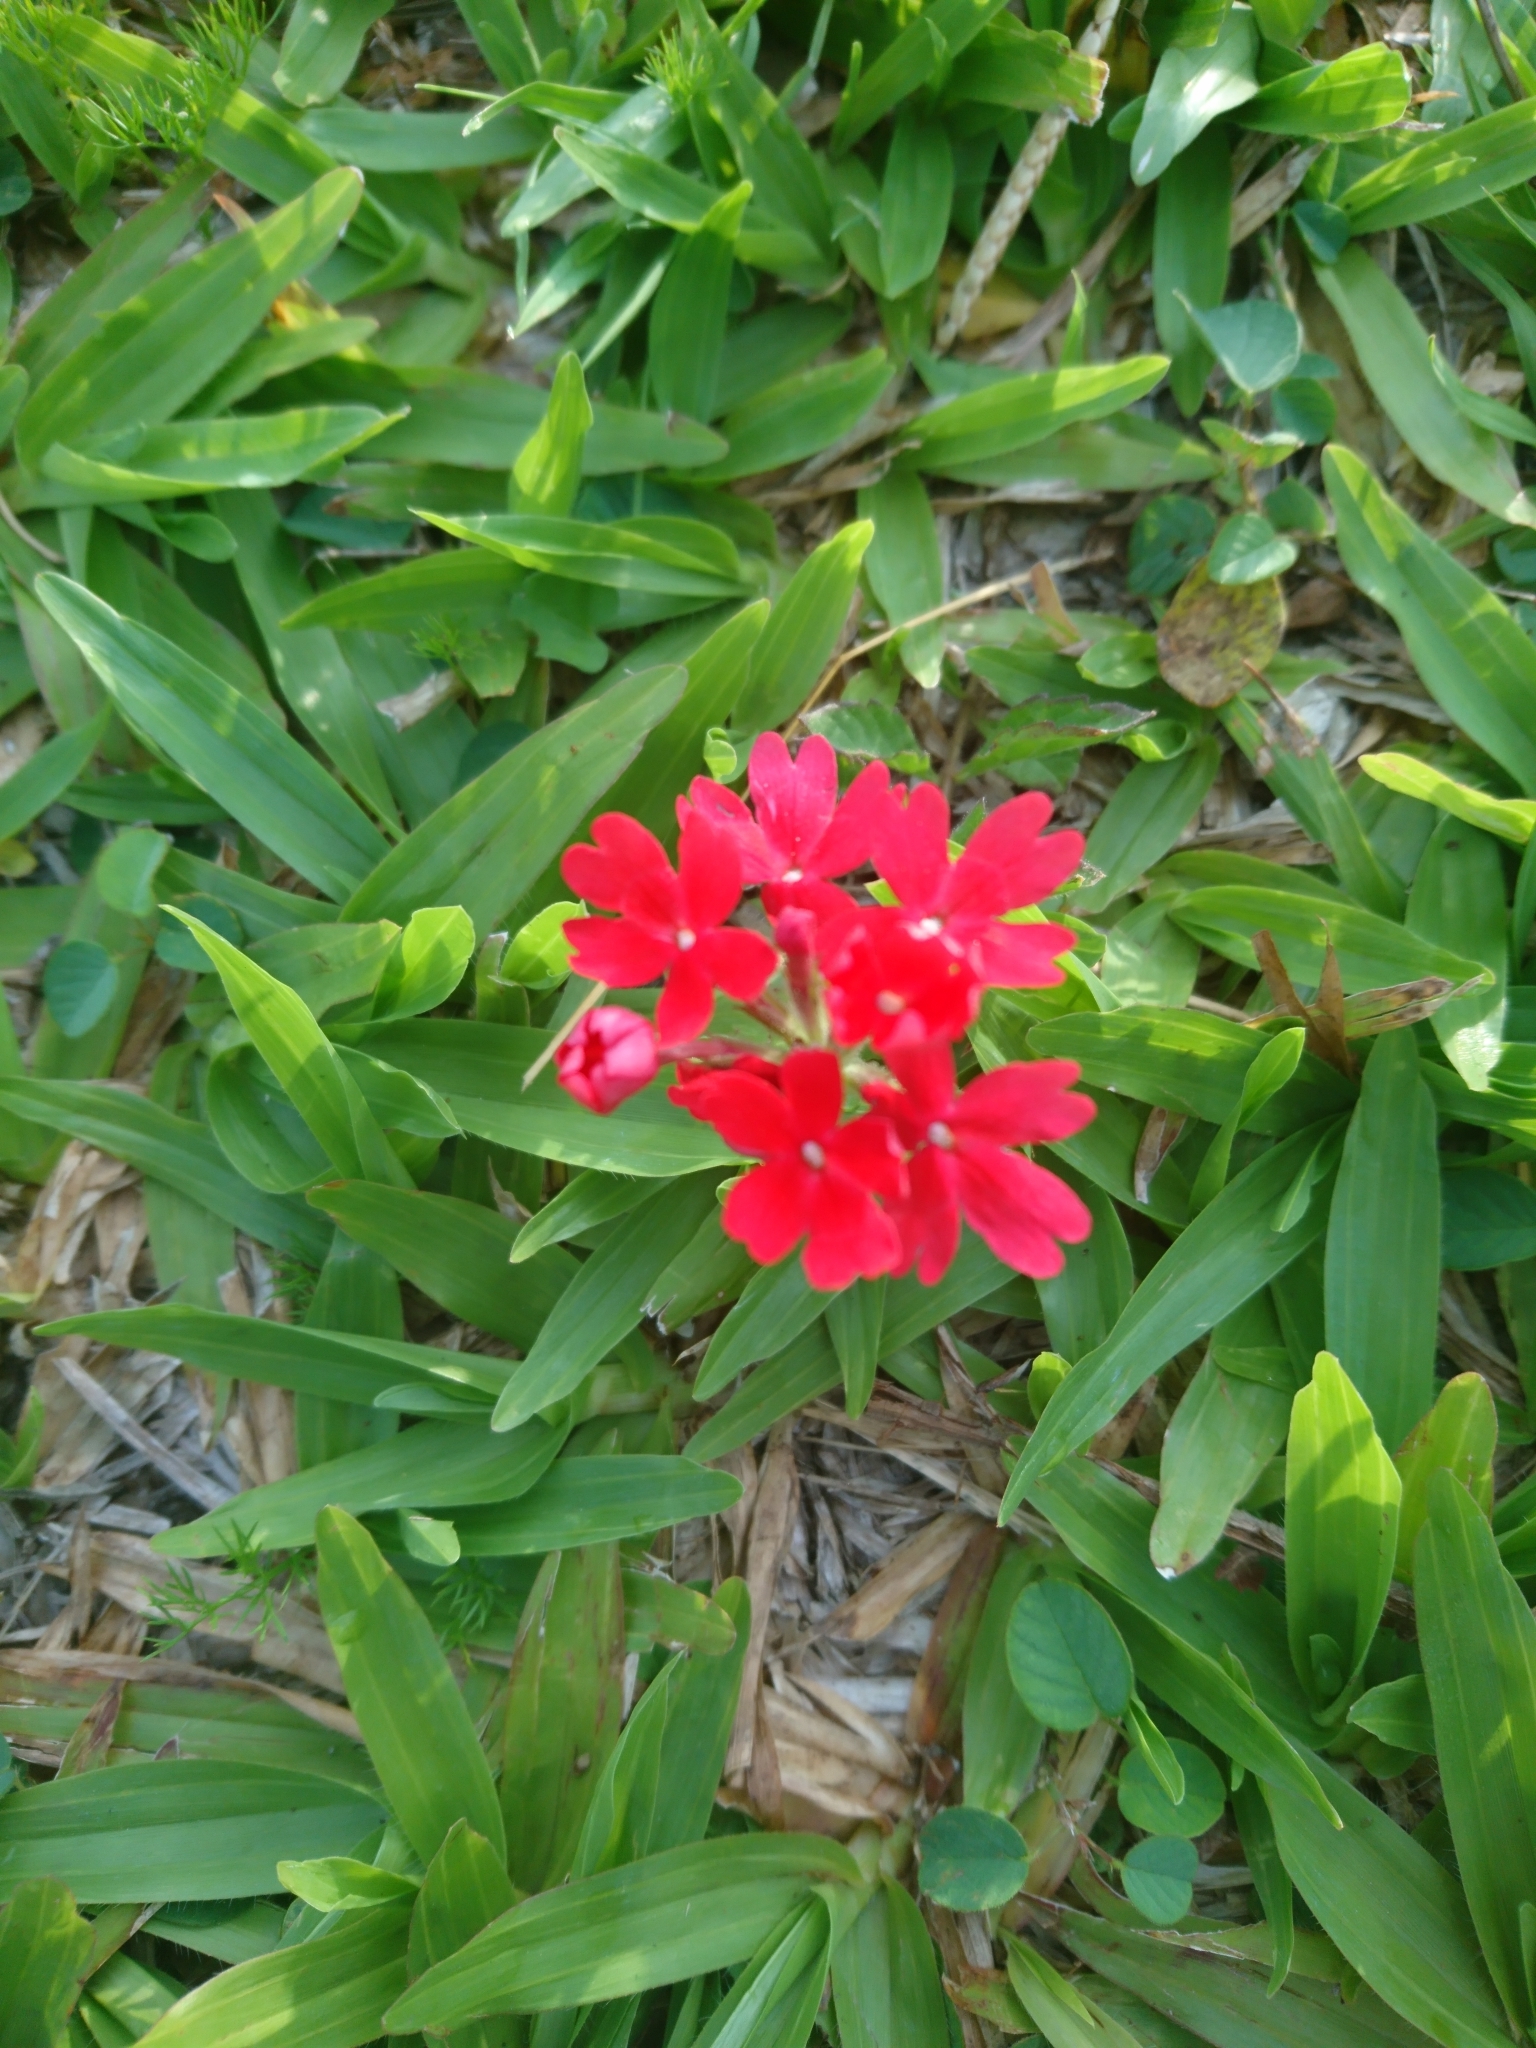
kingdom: Plantae
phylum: Tracheophyta
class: Magnoliopsida
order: Lamiales
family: Verbenaceae
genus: Verbena
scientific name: Verbena peruviana
